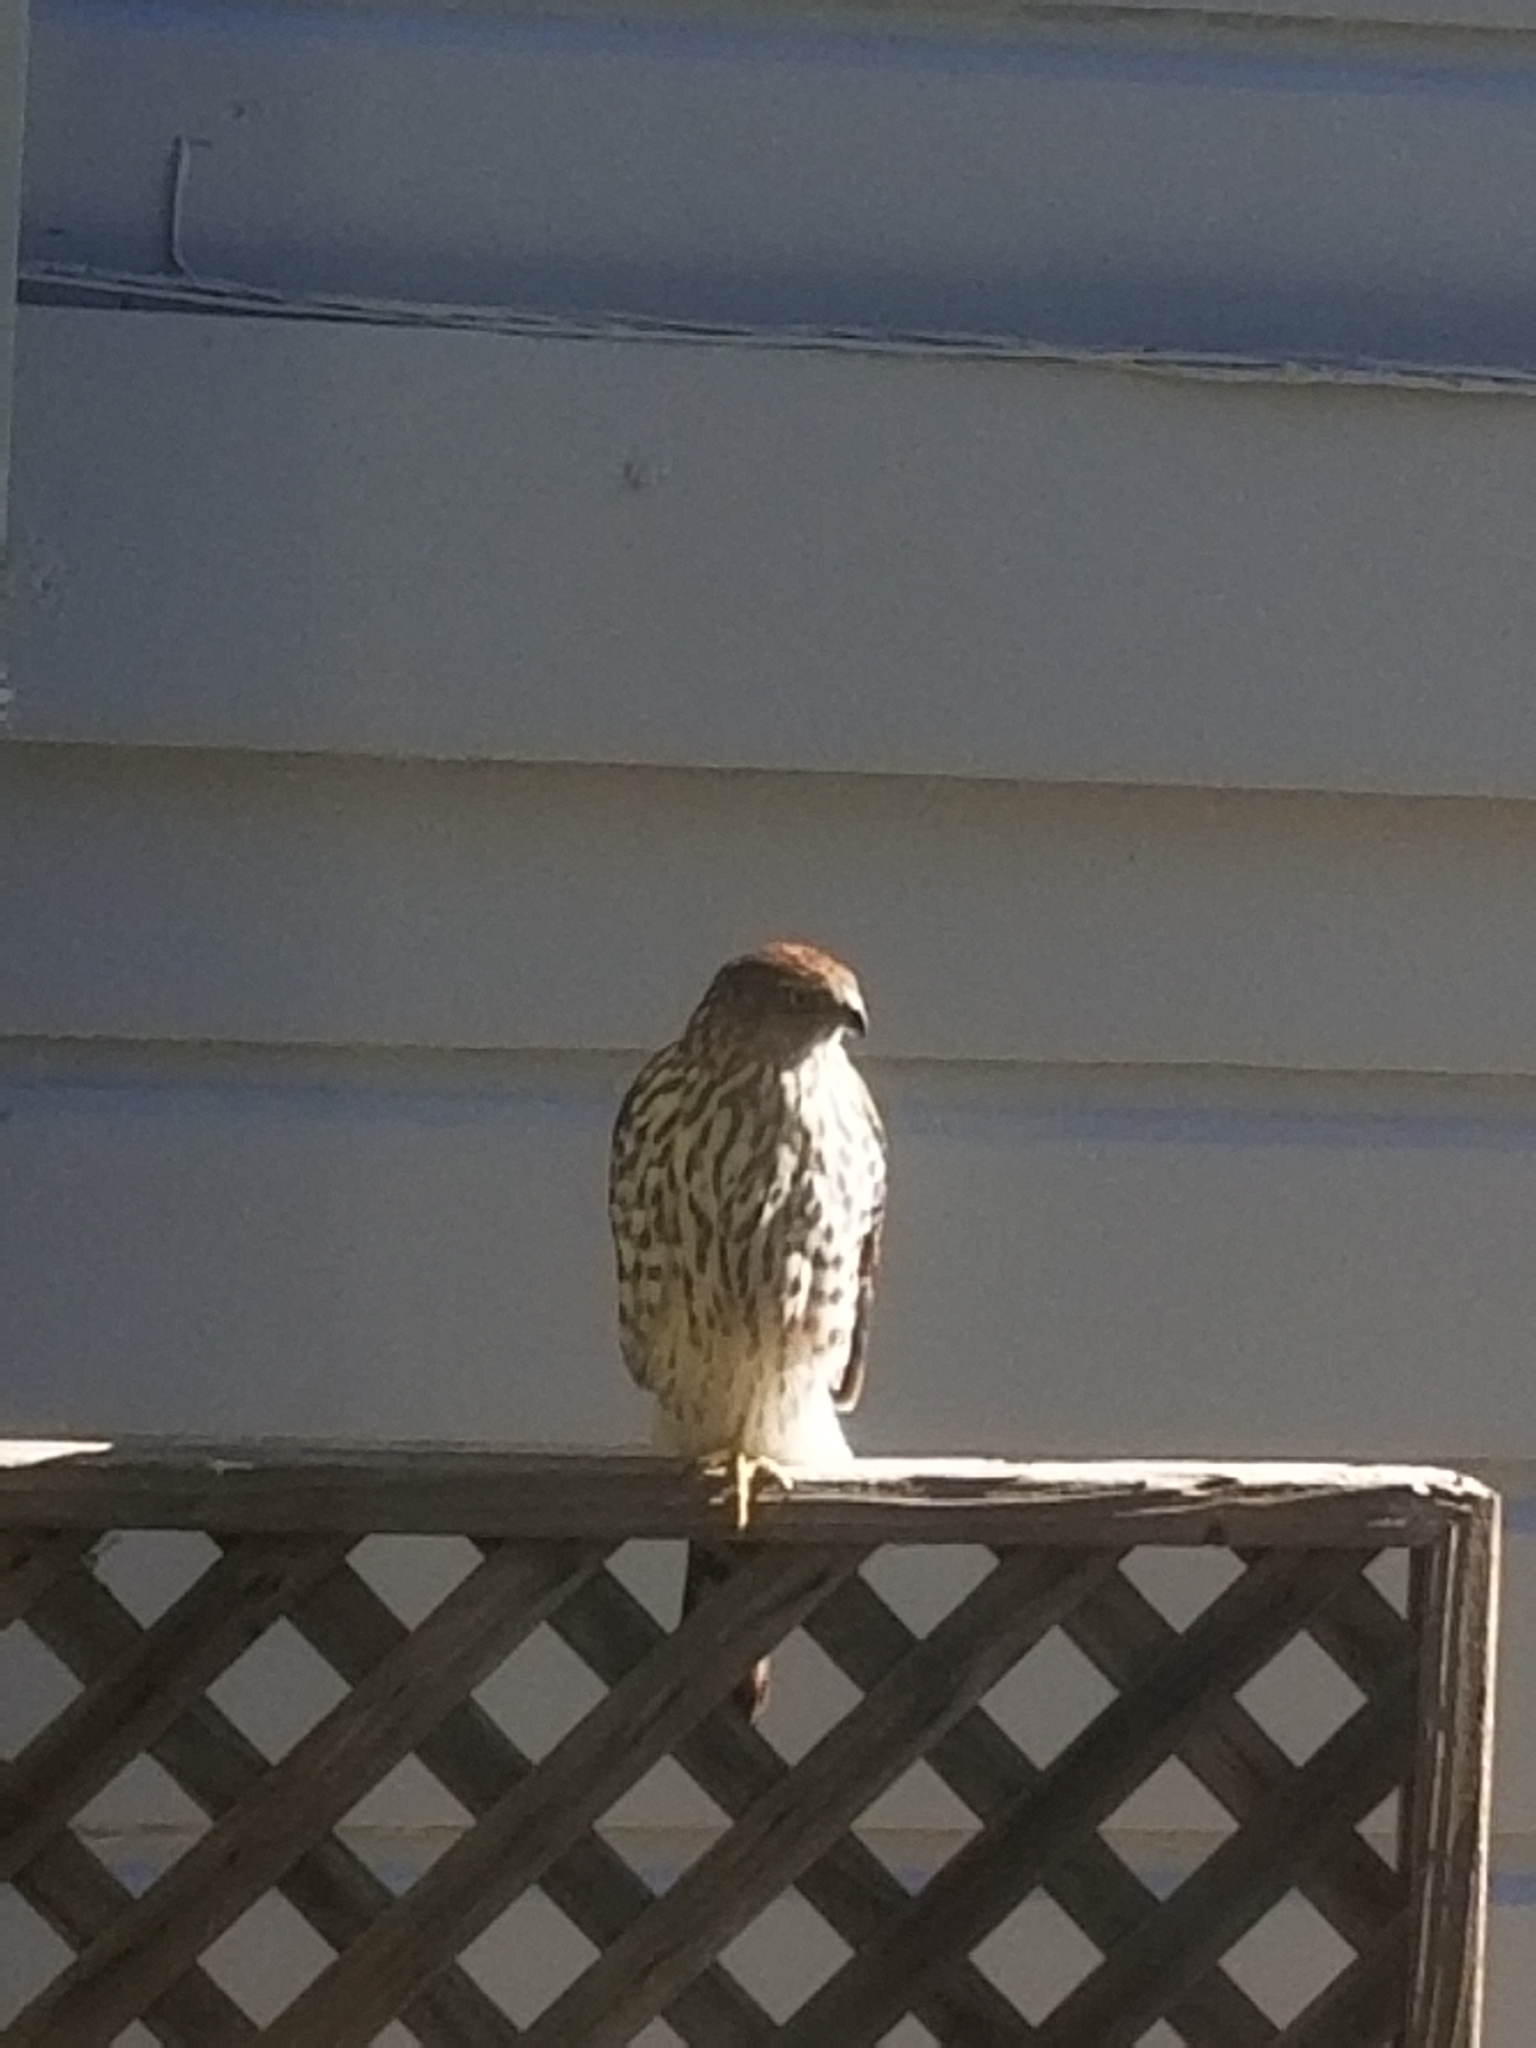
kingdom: Animalia
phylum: Chordata
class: Aves
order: Accipitriformes
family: Accipitridae
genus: Accipiter
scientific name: Accipiter cooperii
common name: Cooper's hawk
